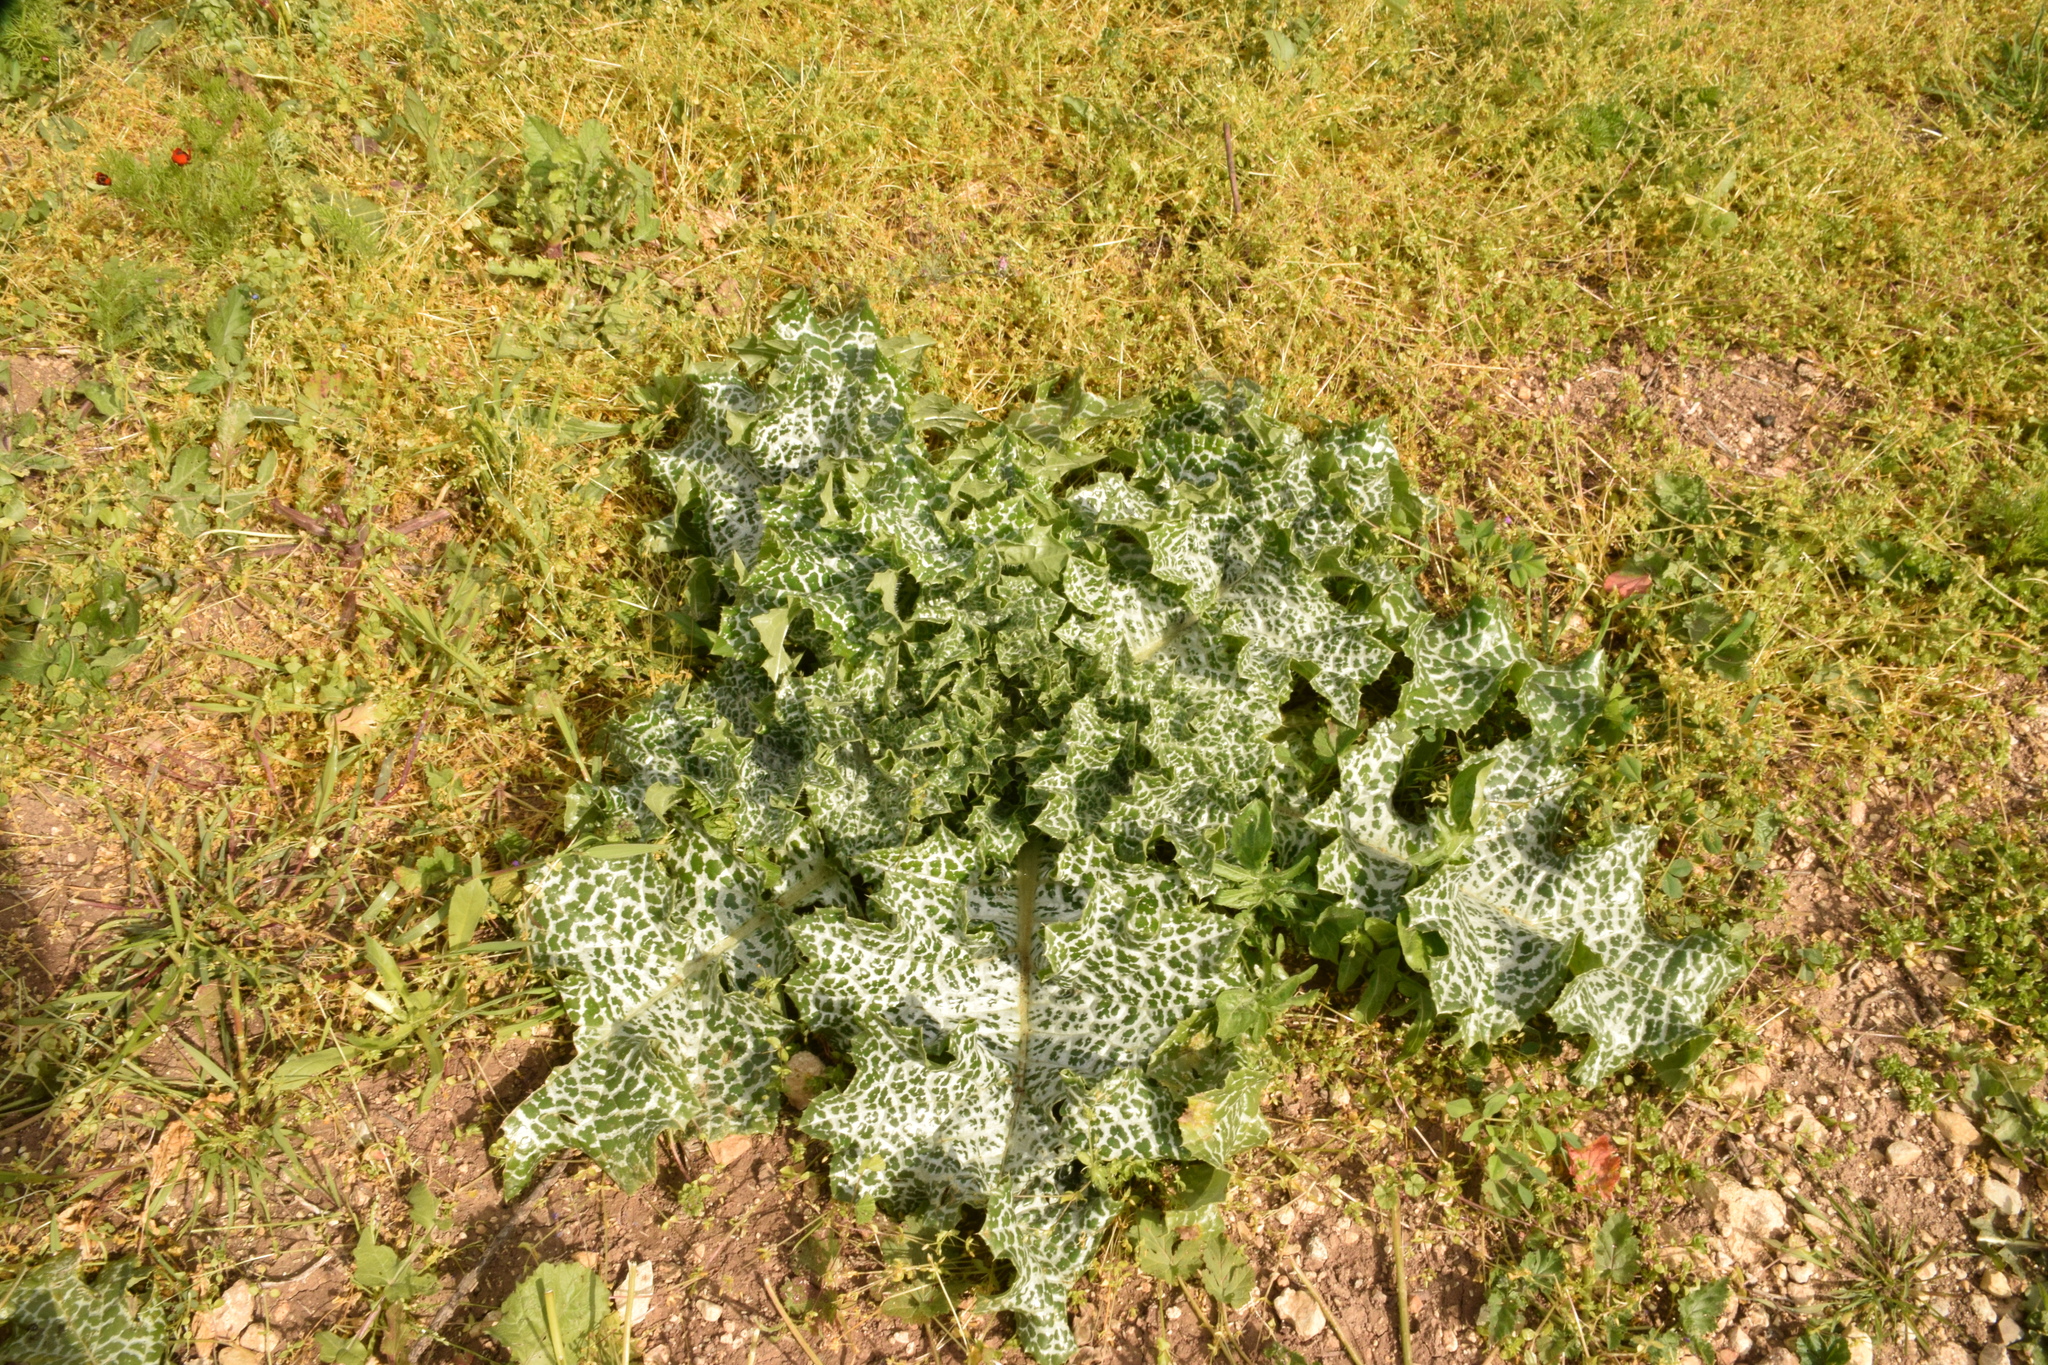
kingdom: Plantae
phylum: Tracheophyta
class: Magnoliopsida
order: Asterales
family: Asteraceae
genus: Silybum
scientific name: Silybum marianum
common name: Milk thistle
